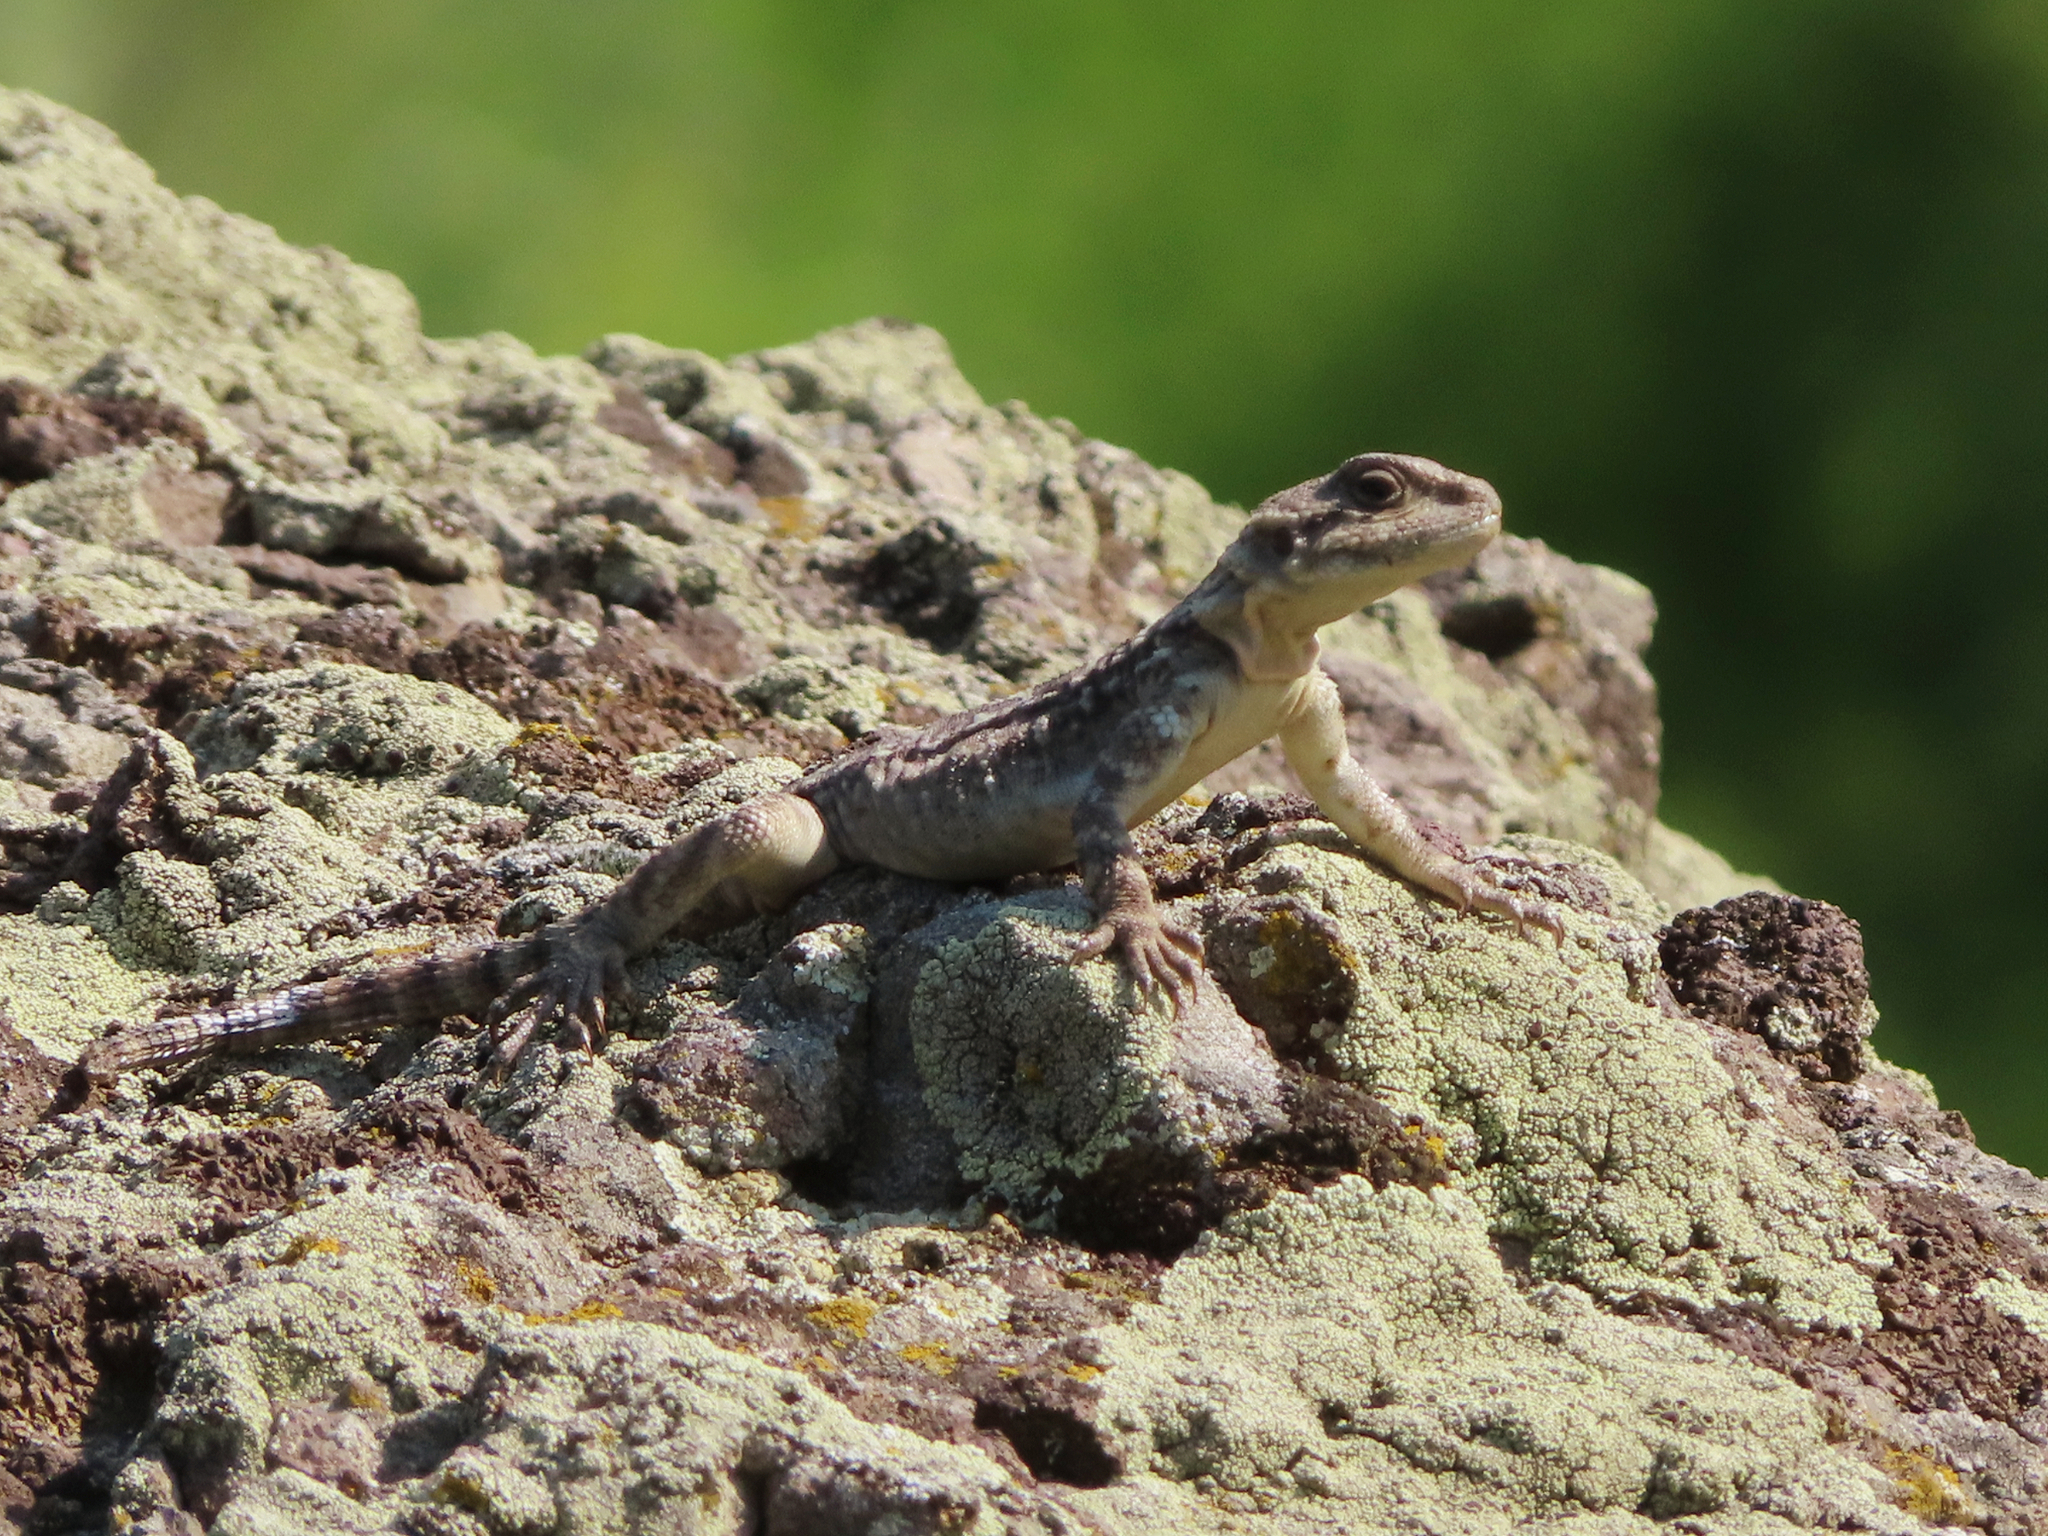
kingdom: Animalia
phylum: Chordata
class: Squamata
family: Agamidae
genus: Paralaudakia
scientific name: Paralaudakia caucasia
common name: Caucasian agama
